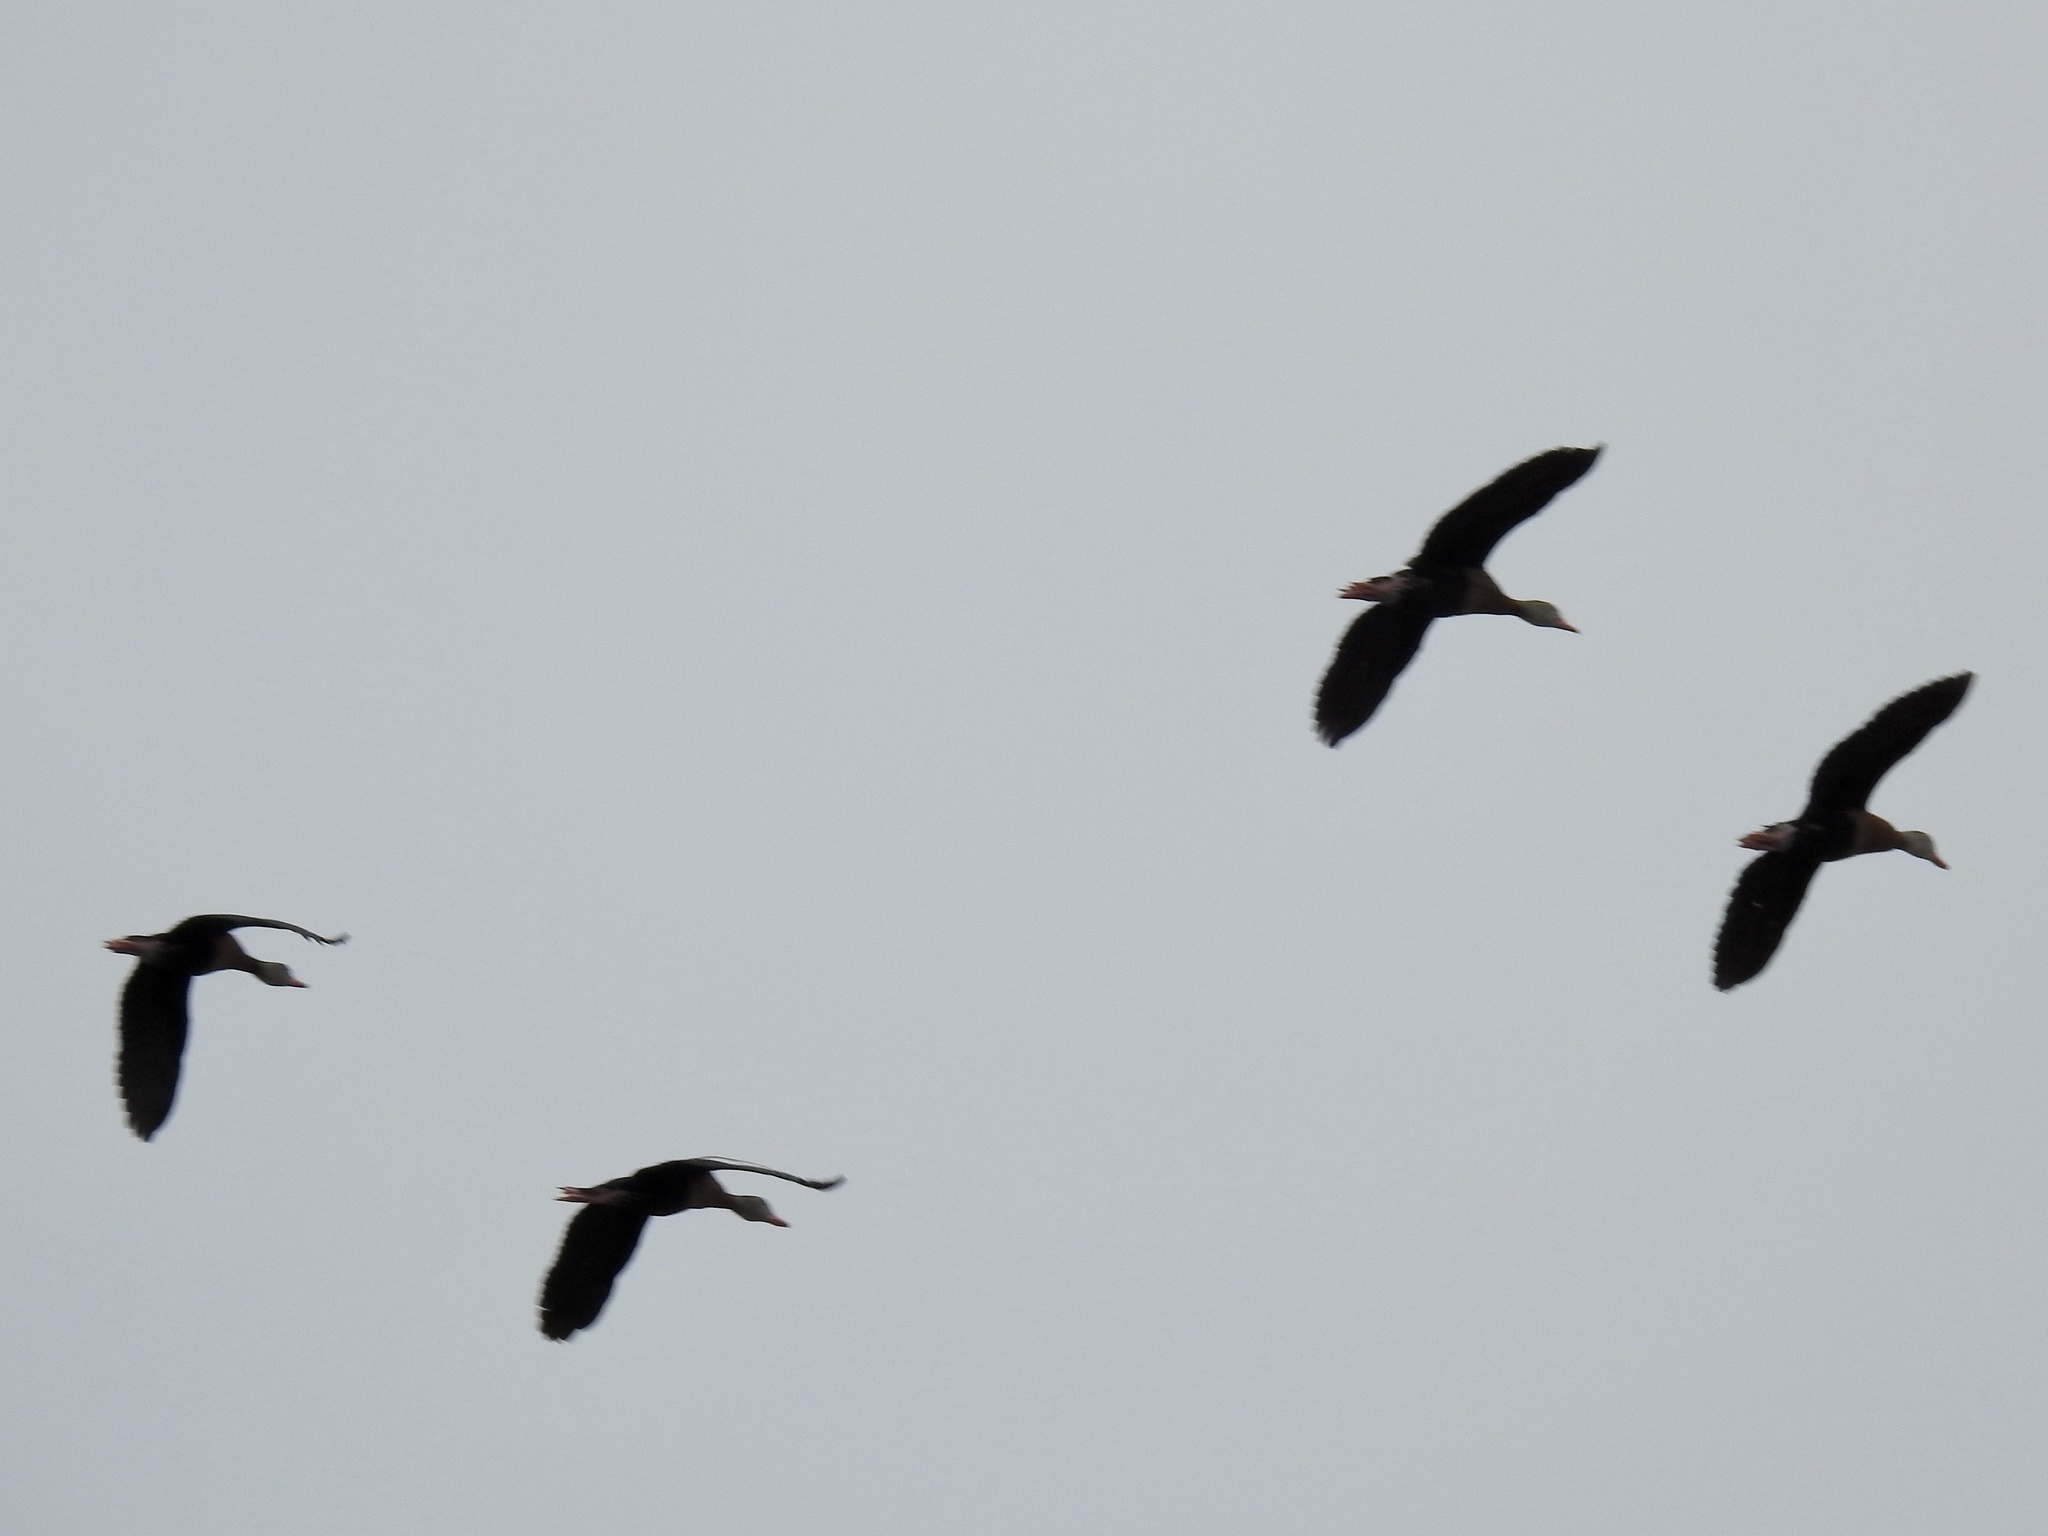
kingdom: Animalia
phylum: Chordata
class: Aves
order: Anseriformes
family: Anatidae
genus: Dendrocygna
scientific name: Dendrocygna autumnalis
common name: Black-bellied whistling duck
